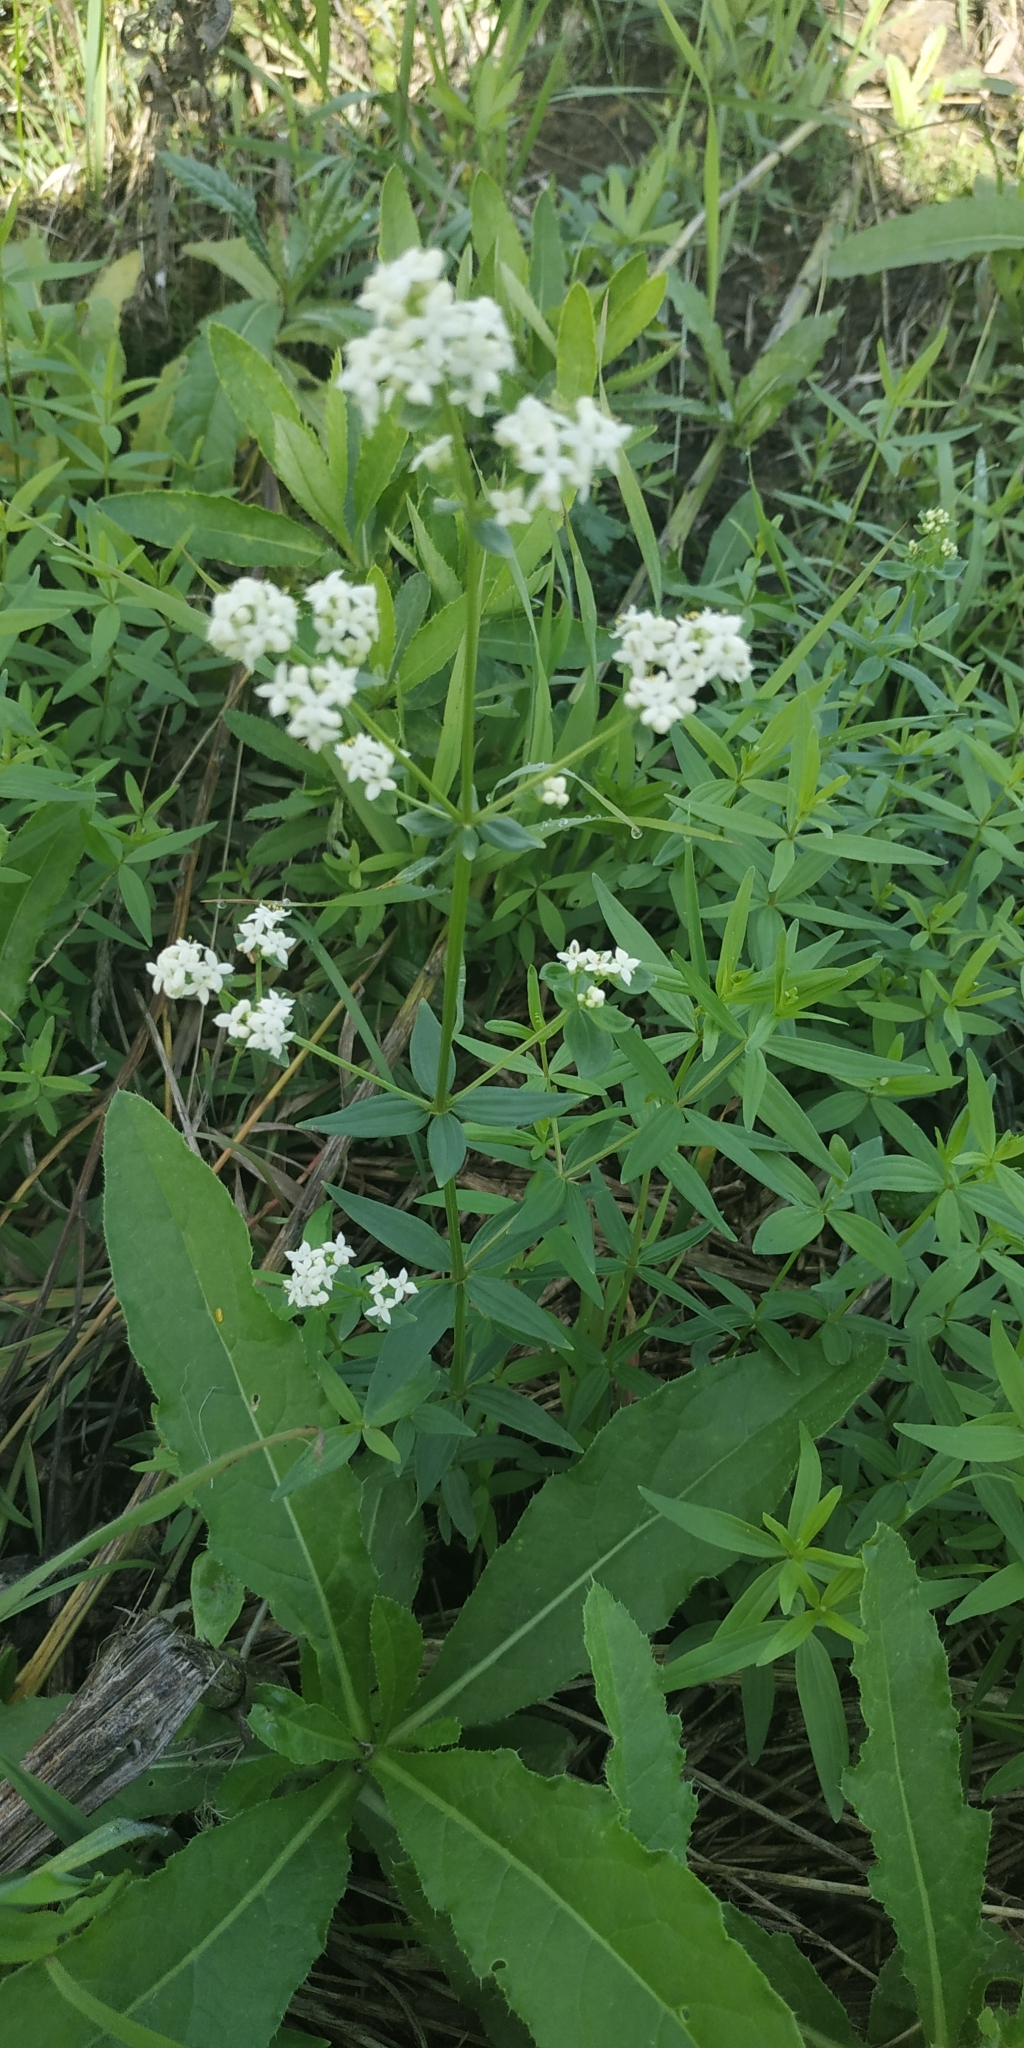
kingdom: Plantae
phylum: Tracheophyta
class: Magnoliopsida
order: Gentianales
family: Rubiaceae
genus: Galium
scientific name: Galium boreale
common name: Northern bedstraw
